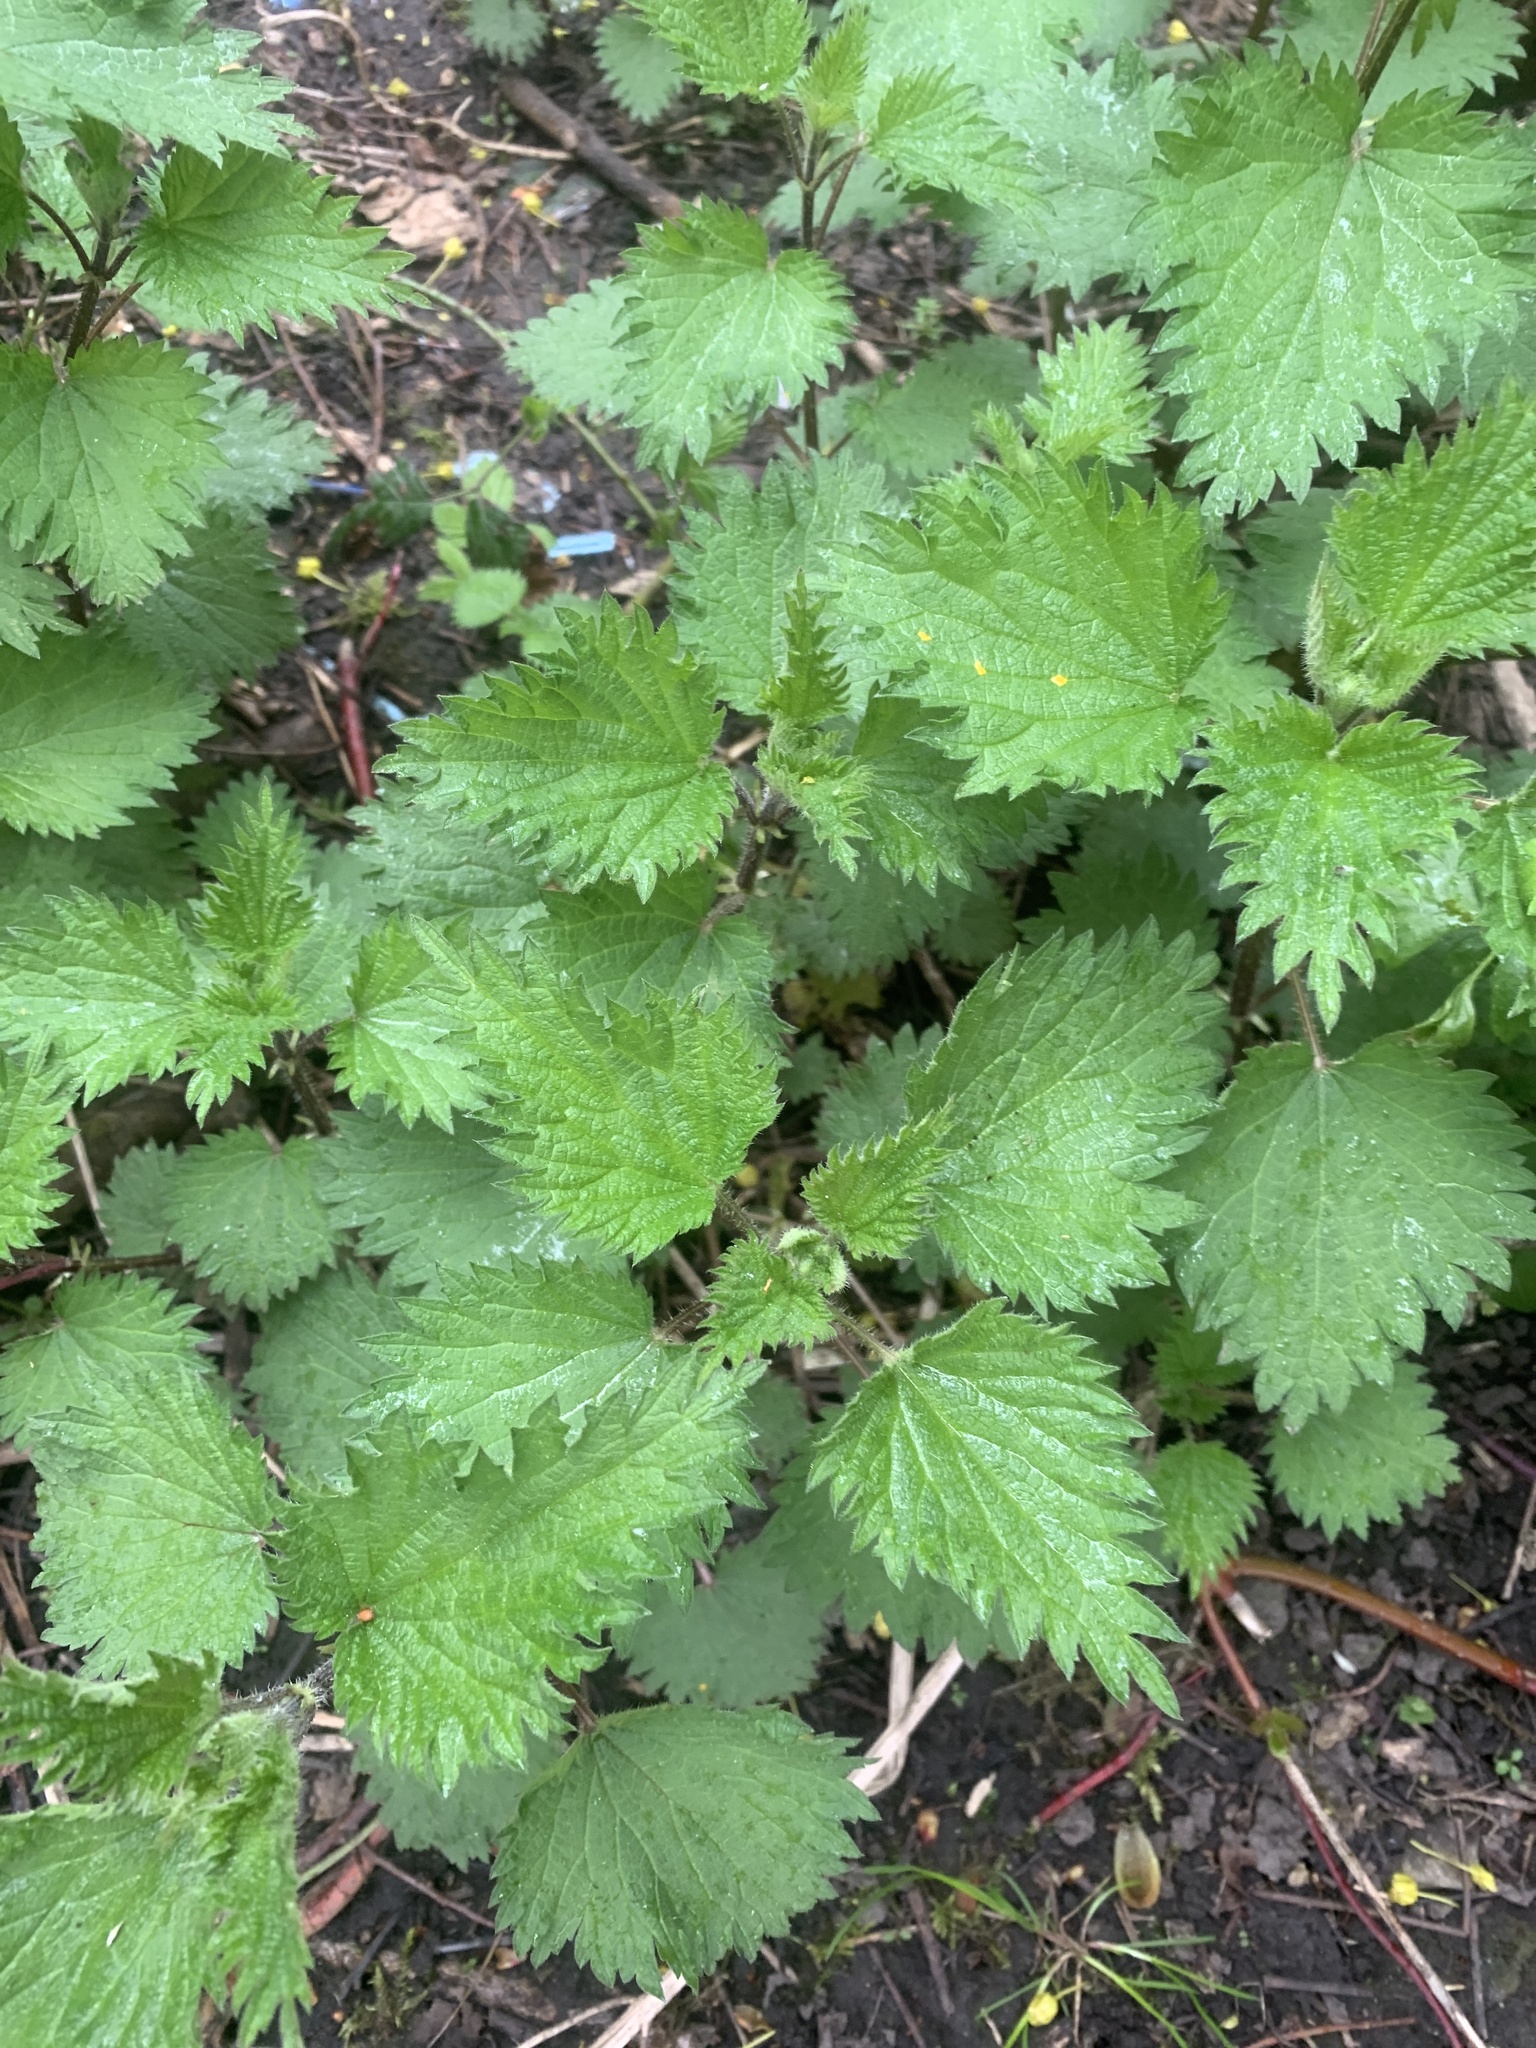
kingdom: Plantae
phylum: Tracheophyta
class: Magnoliopsida
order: Rosales
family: Urticaceae
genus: Urtica
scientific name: Urtica dioica
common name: Common nettle
